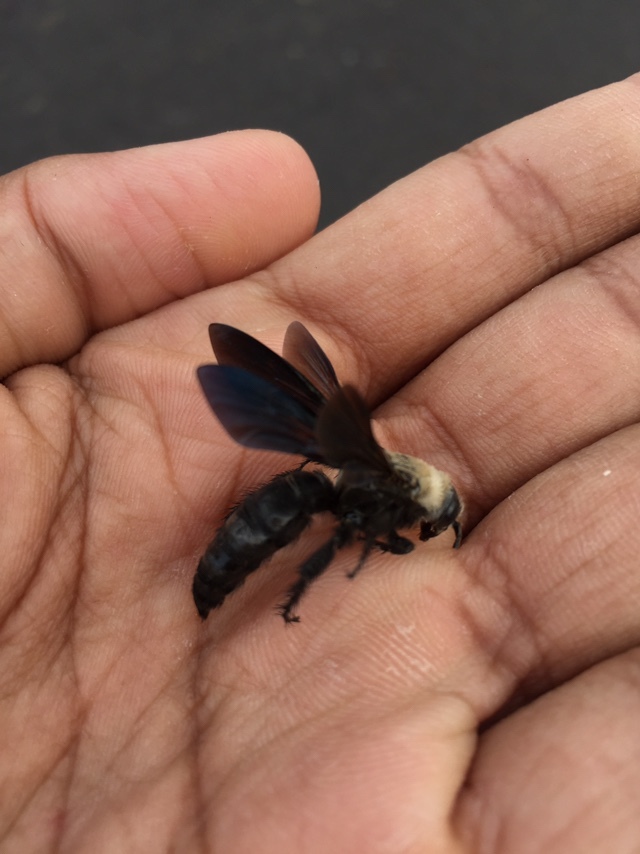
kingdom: Animalia
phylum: Arthropoda
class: Insecta
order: Hymenoptera
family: Scoliidae
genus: Campsomeriella
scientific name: Campsomeriella collaris
